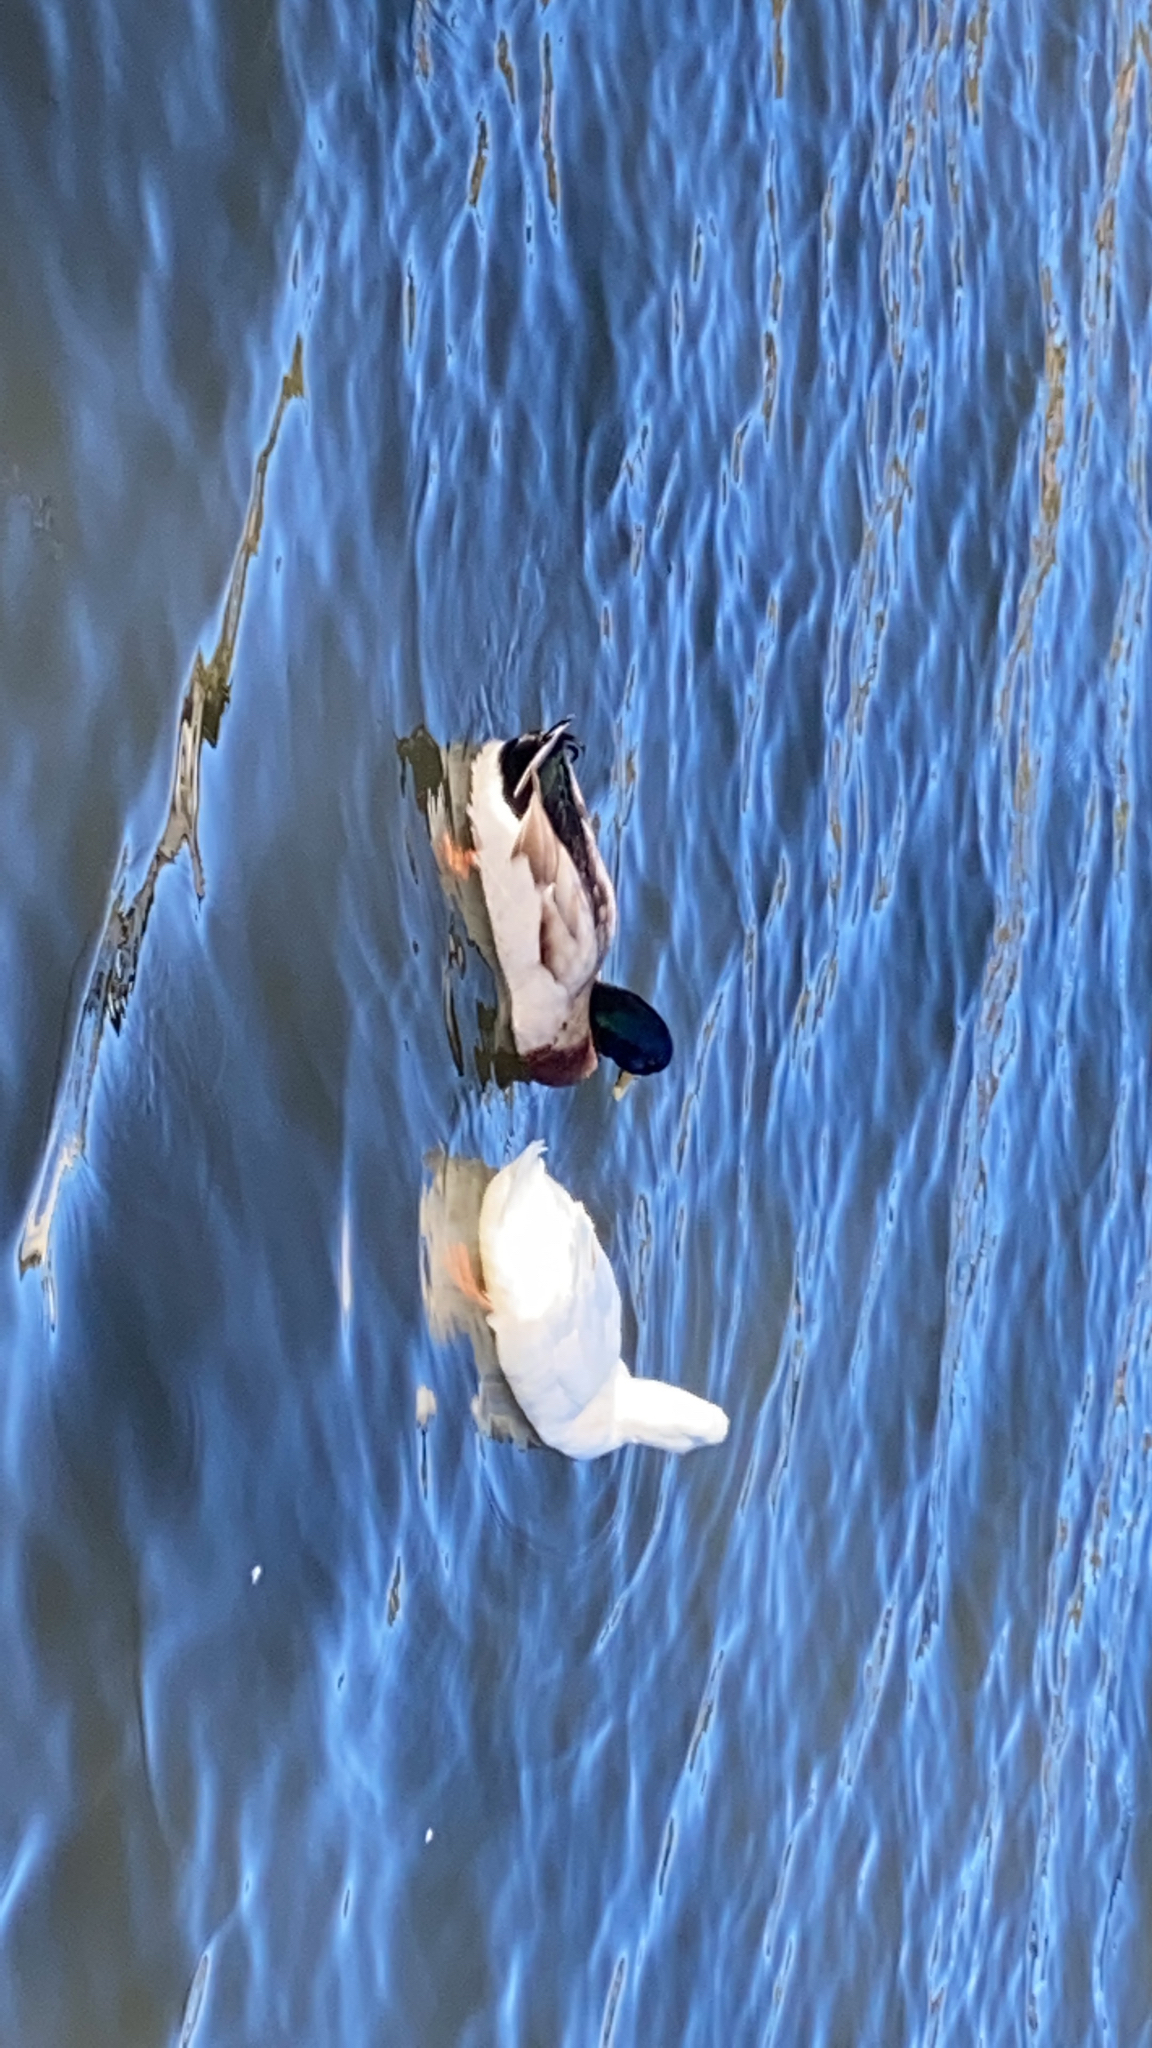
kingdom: Animalia
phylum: Chordata
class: Aves
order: Anseriformes
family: Anatidae
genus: Anas
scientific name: Anas platyrhynchos
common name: Mallard
